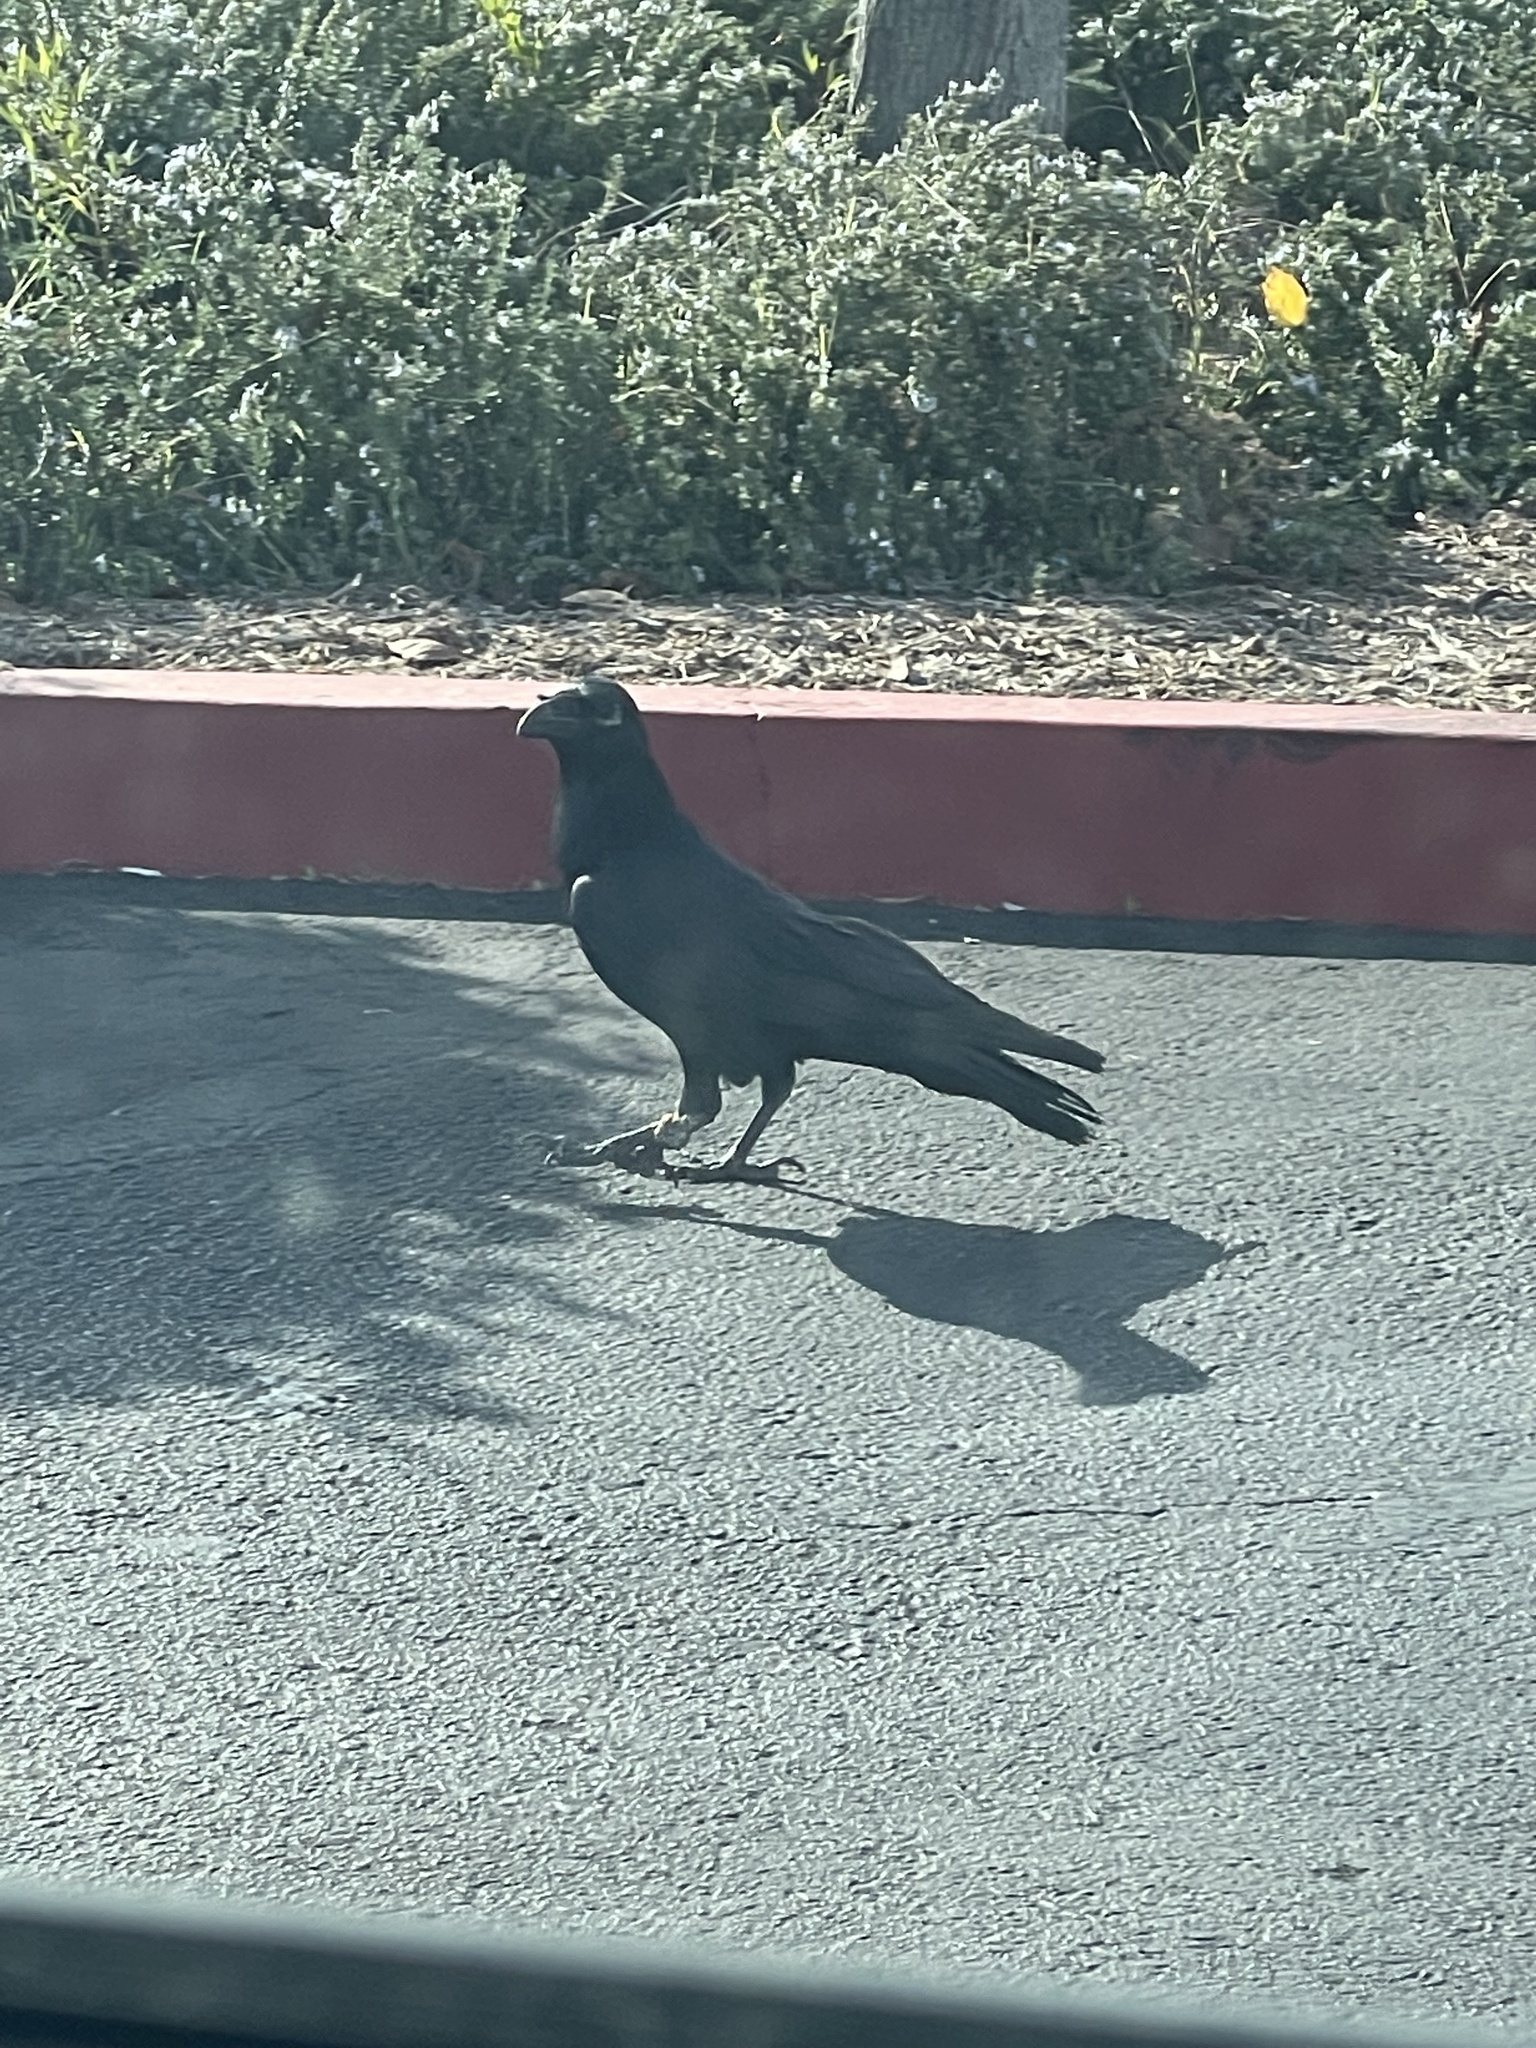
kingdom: Animalia
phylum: Chordata
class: Aves
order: Passeriformes
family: Corvidae
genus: Corvus
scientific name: Corvus corax
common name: Common raven
